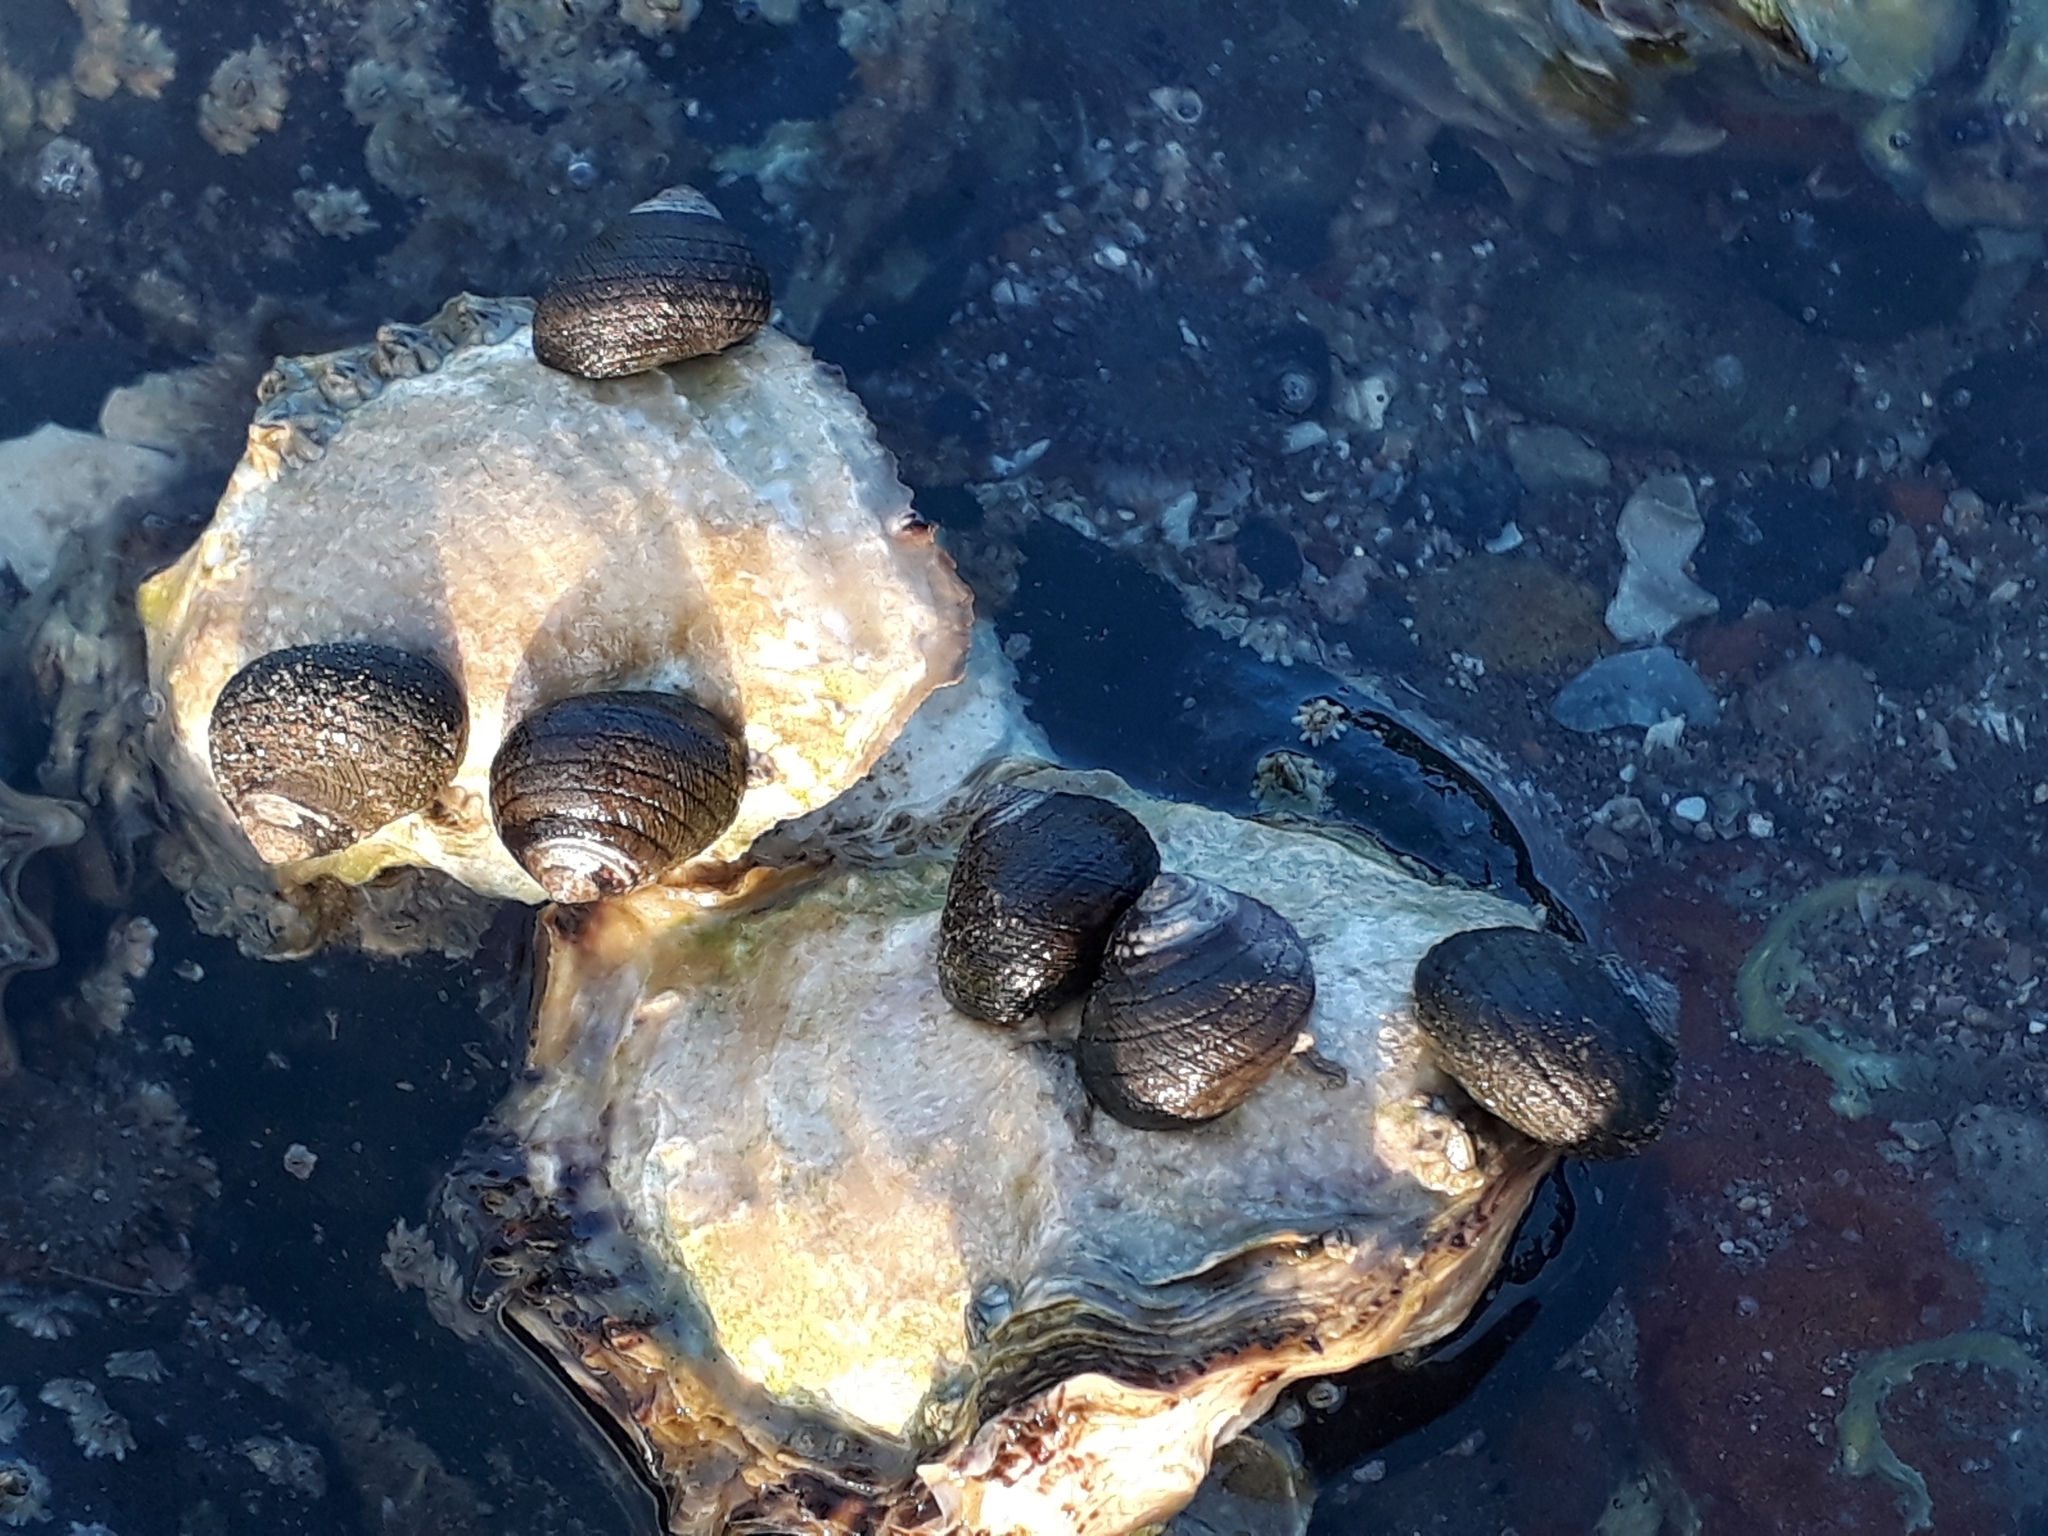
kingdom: Animalia
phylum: Mollusca
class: Gastropoda
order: Trochida
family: Trochidae
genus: Diloma
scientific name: Diloma aethiops
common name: Scorched monodont
